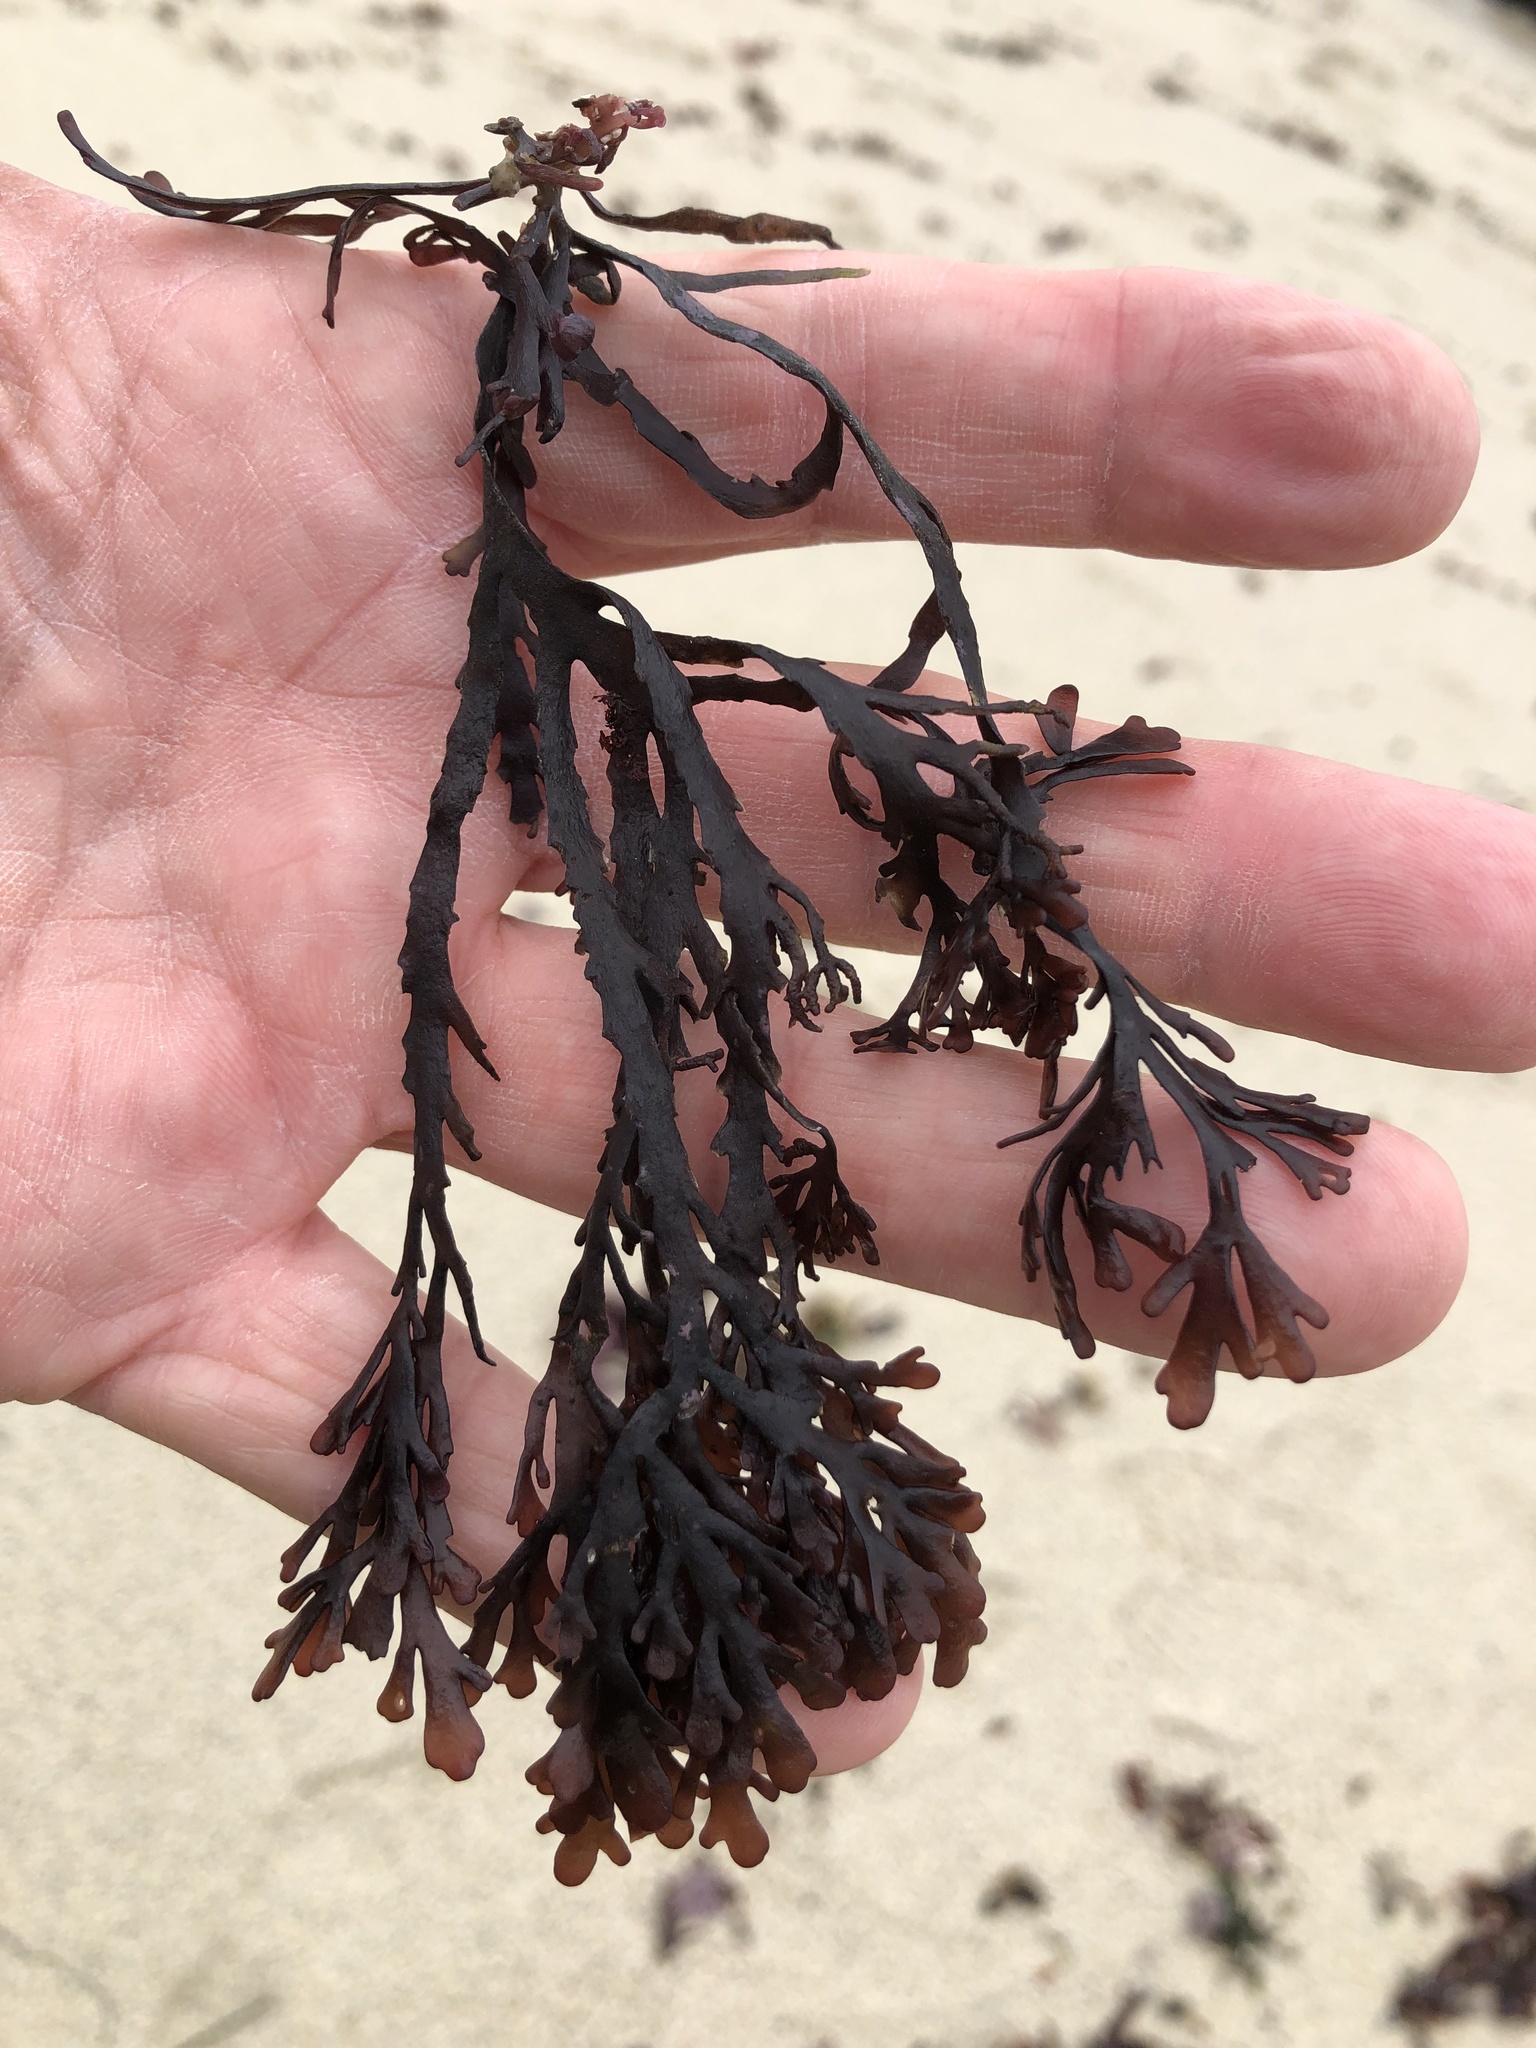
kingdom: Plantae
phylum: Rhodophyta
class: Florideophyceae
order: Ceramiales
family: Rhodomelaceae
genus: Osmundea
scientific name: Osmundea spectabilis
